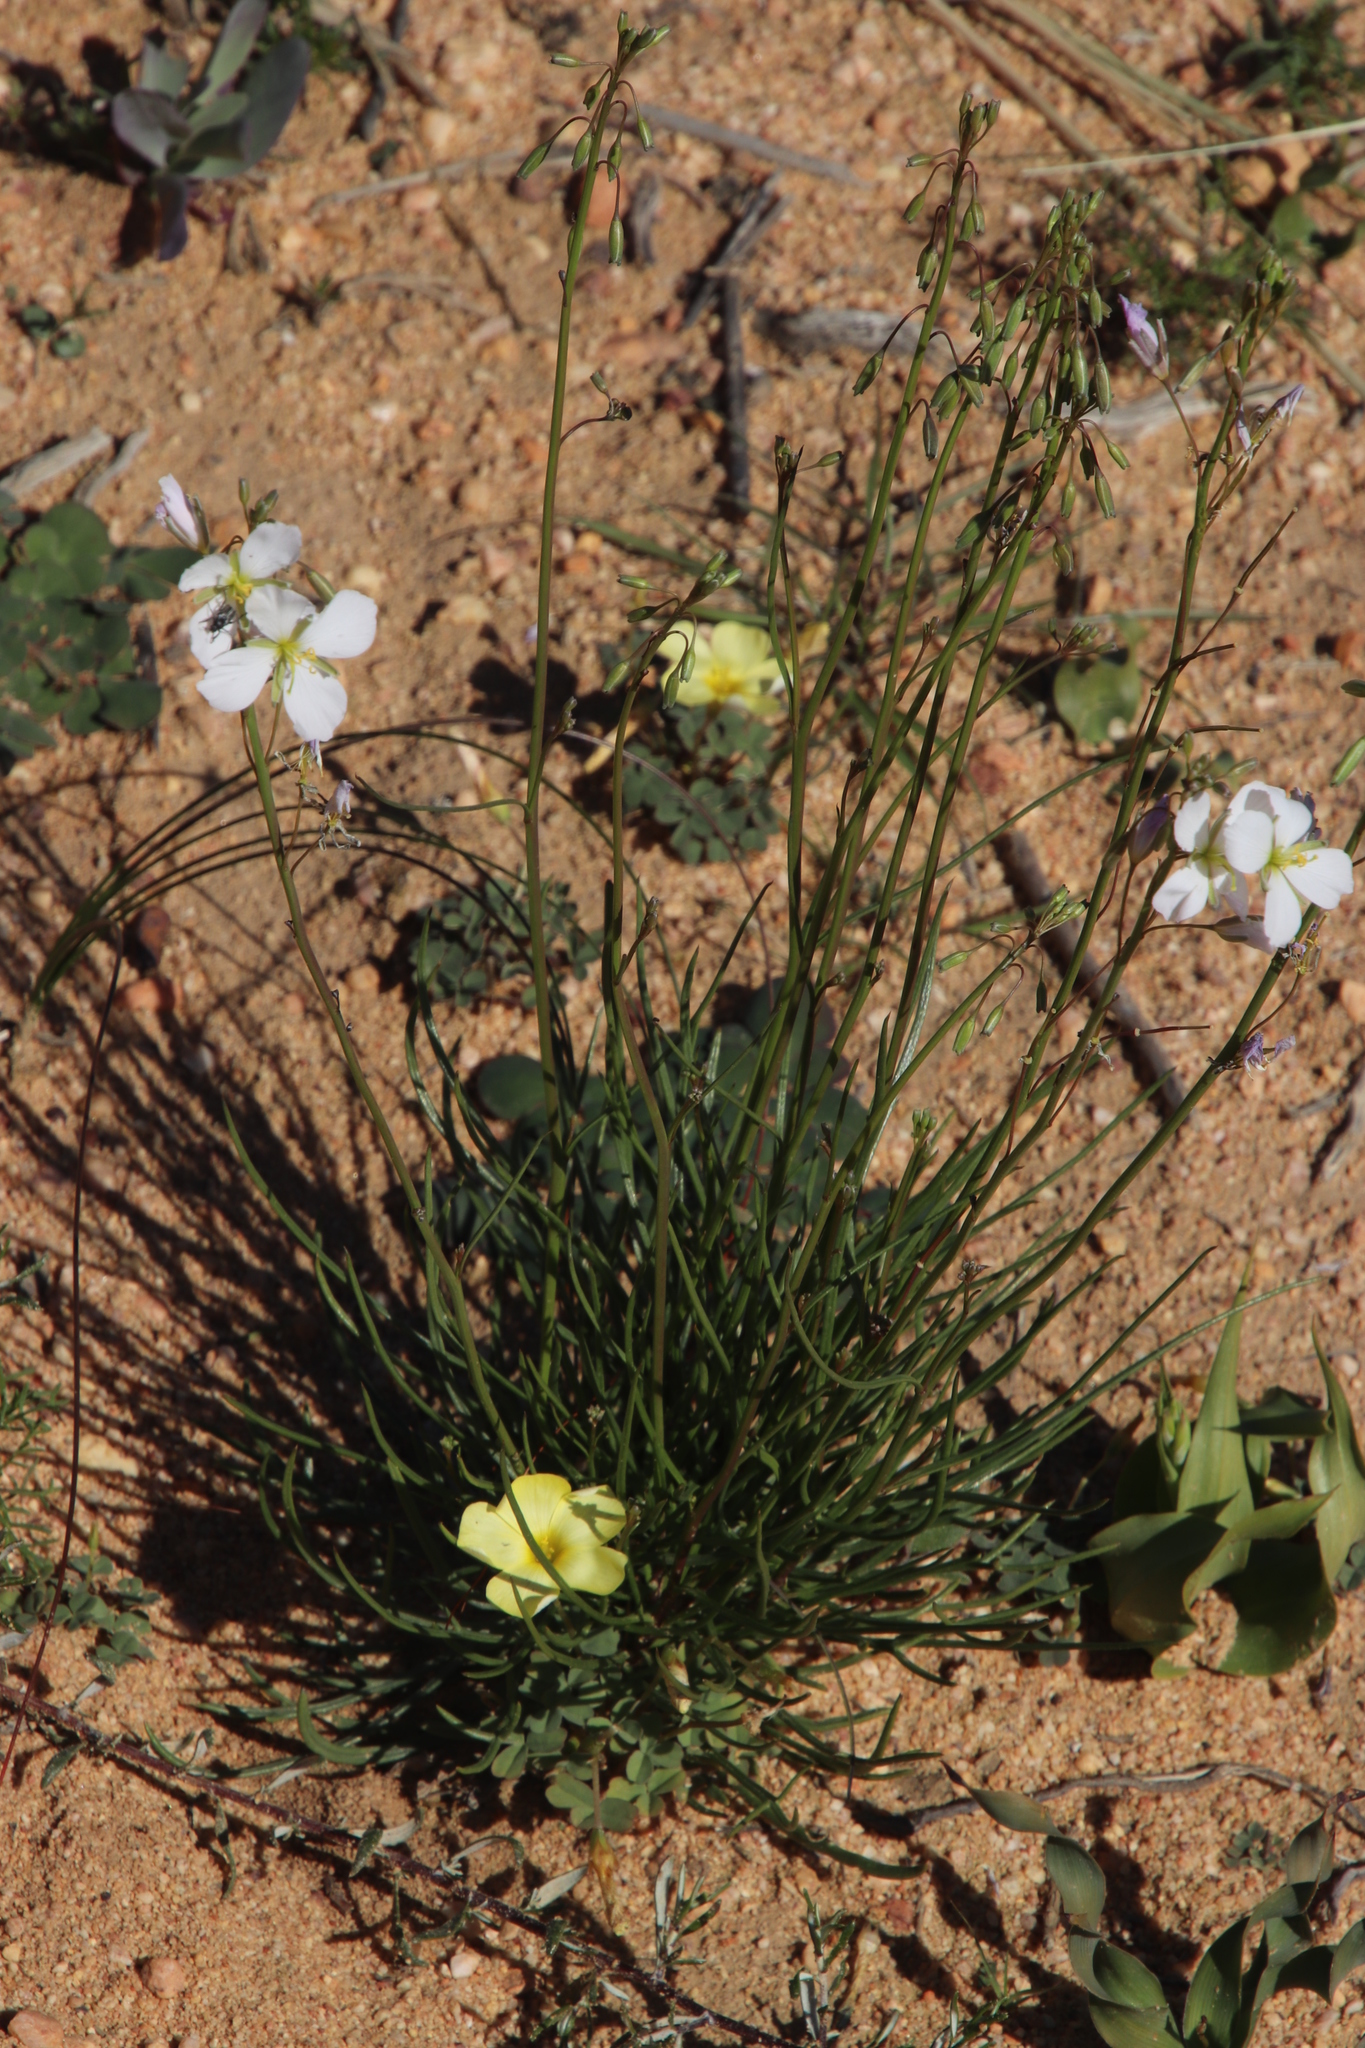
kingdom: Plantae
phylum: Tracheophyta
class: Magnoliopsida
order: Brassicales
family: Brassicaceae
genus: Heliophila
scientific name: Heliophila carnosa
